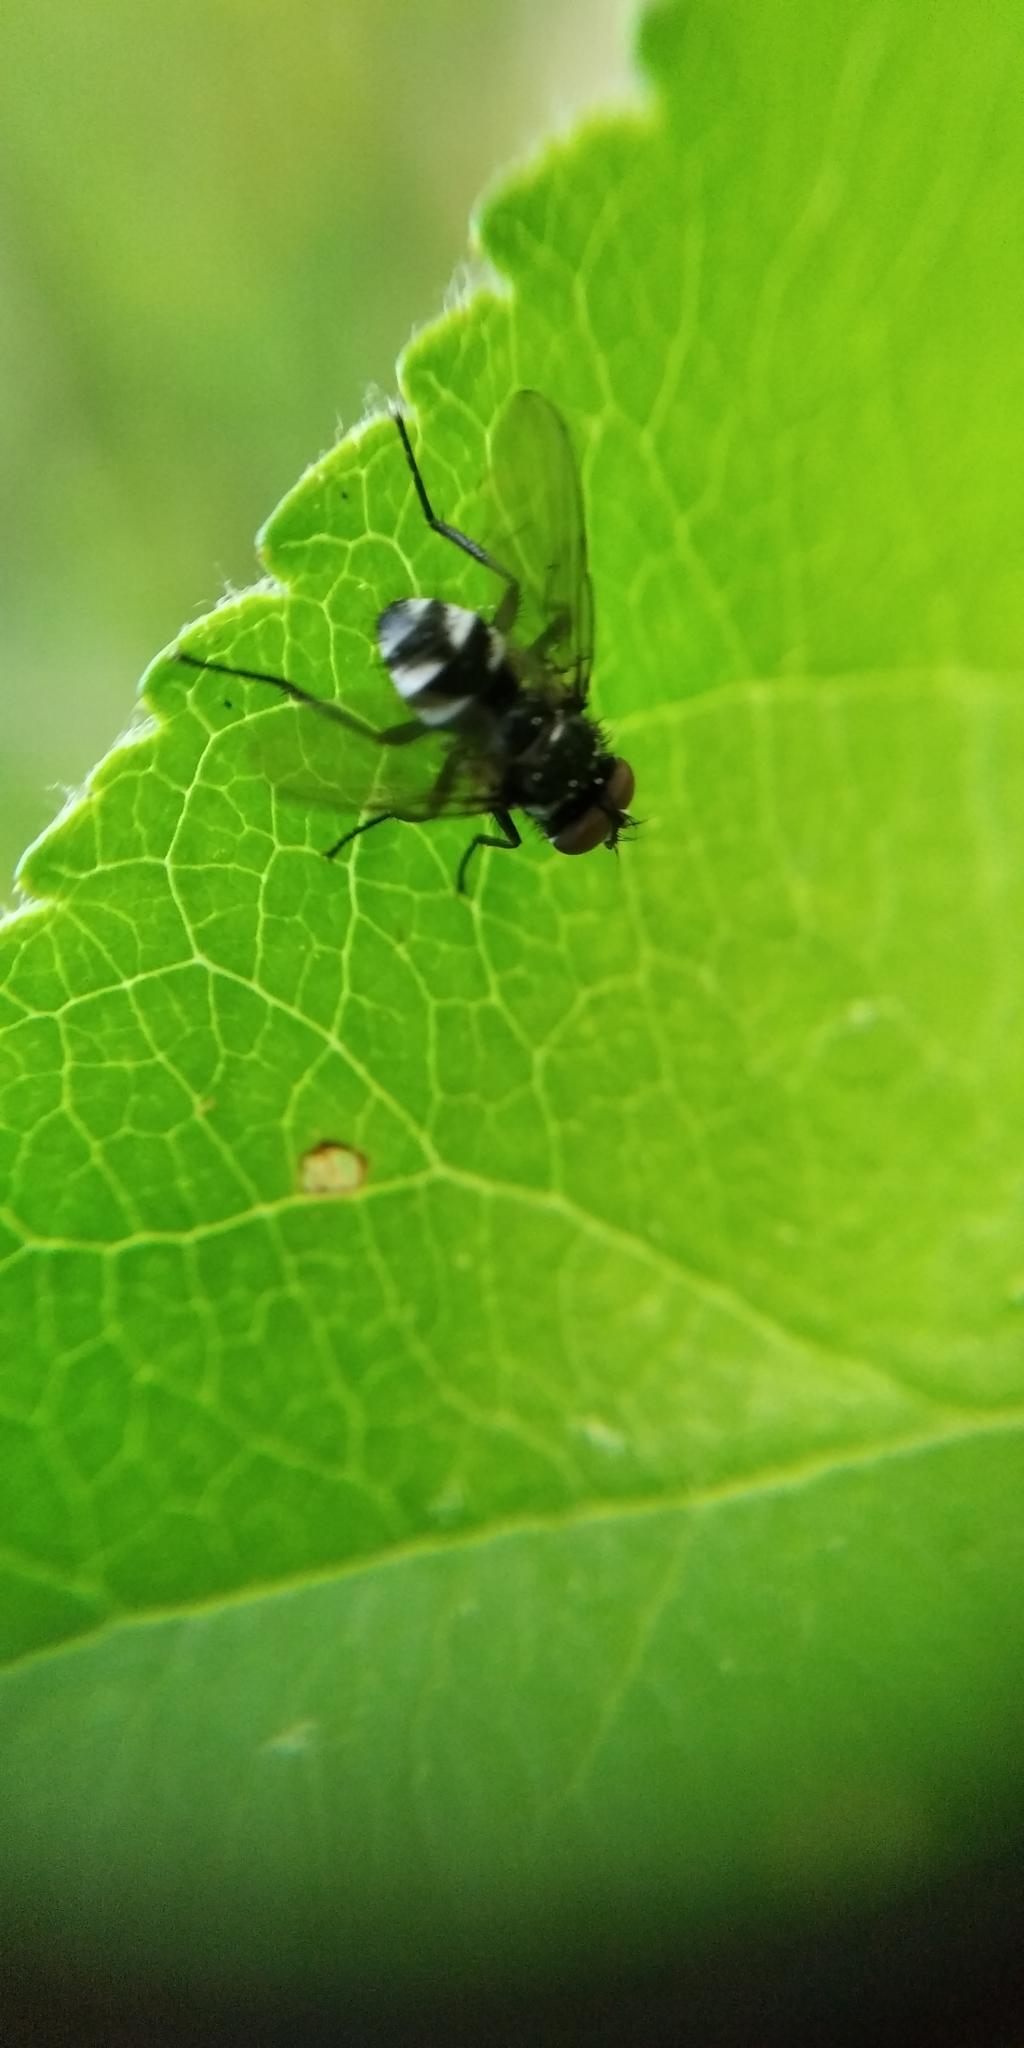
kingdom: Animalia
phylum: Arthropoda
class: Insecta
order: Diptera
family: Tachinidae
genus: Microsoma
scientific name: Microsoma exiguum
